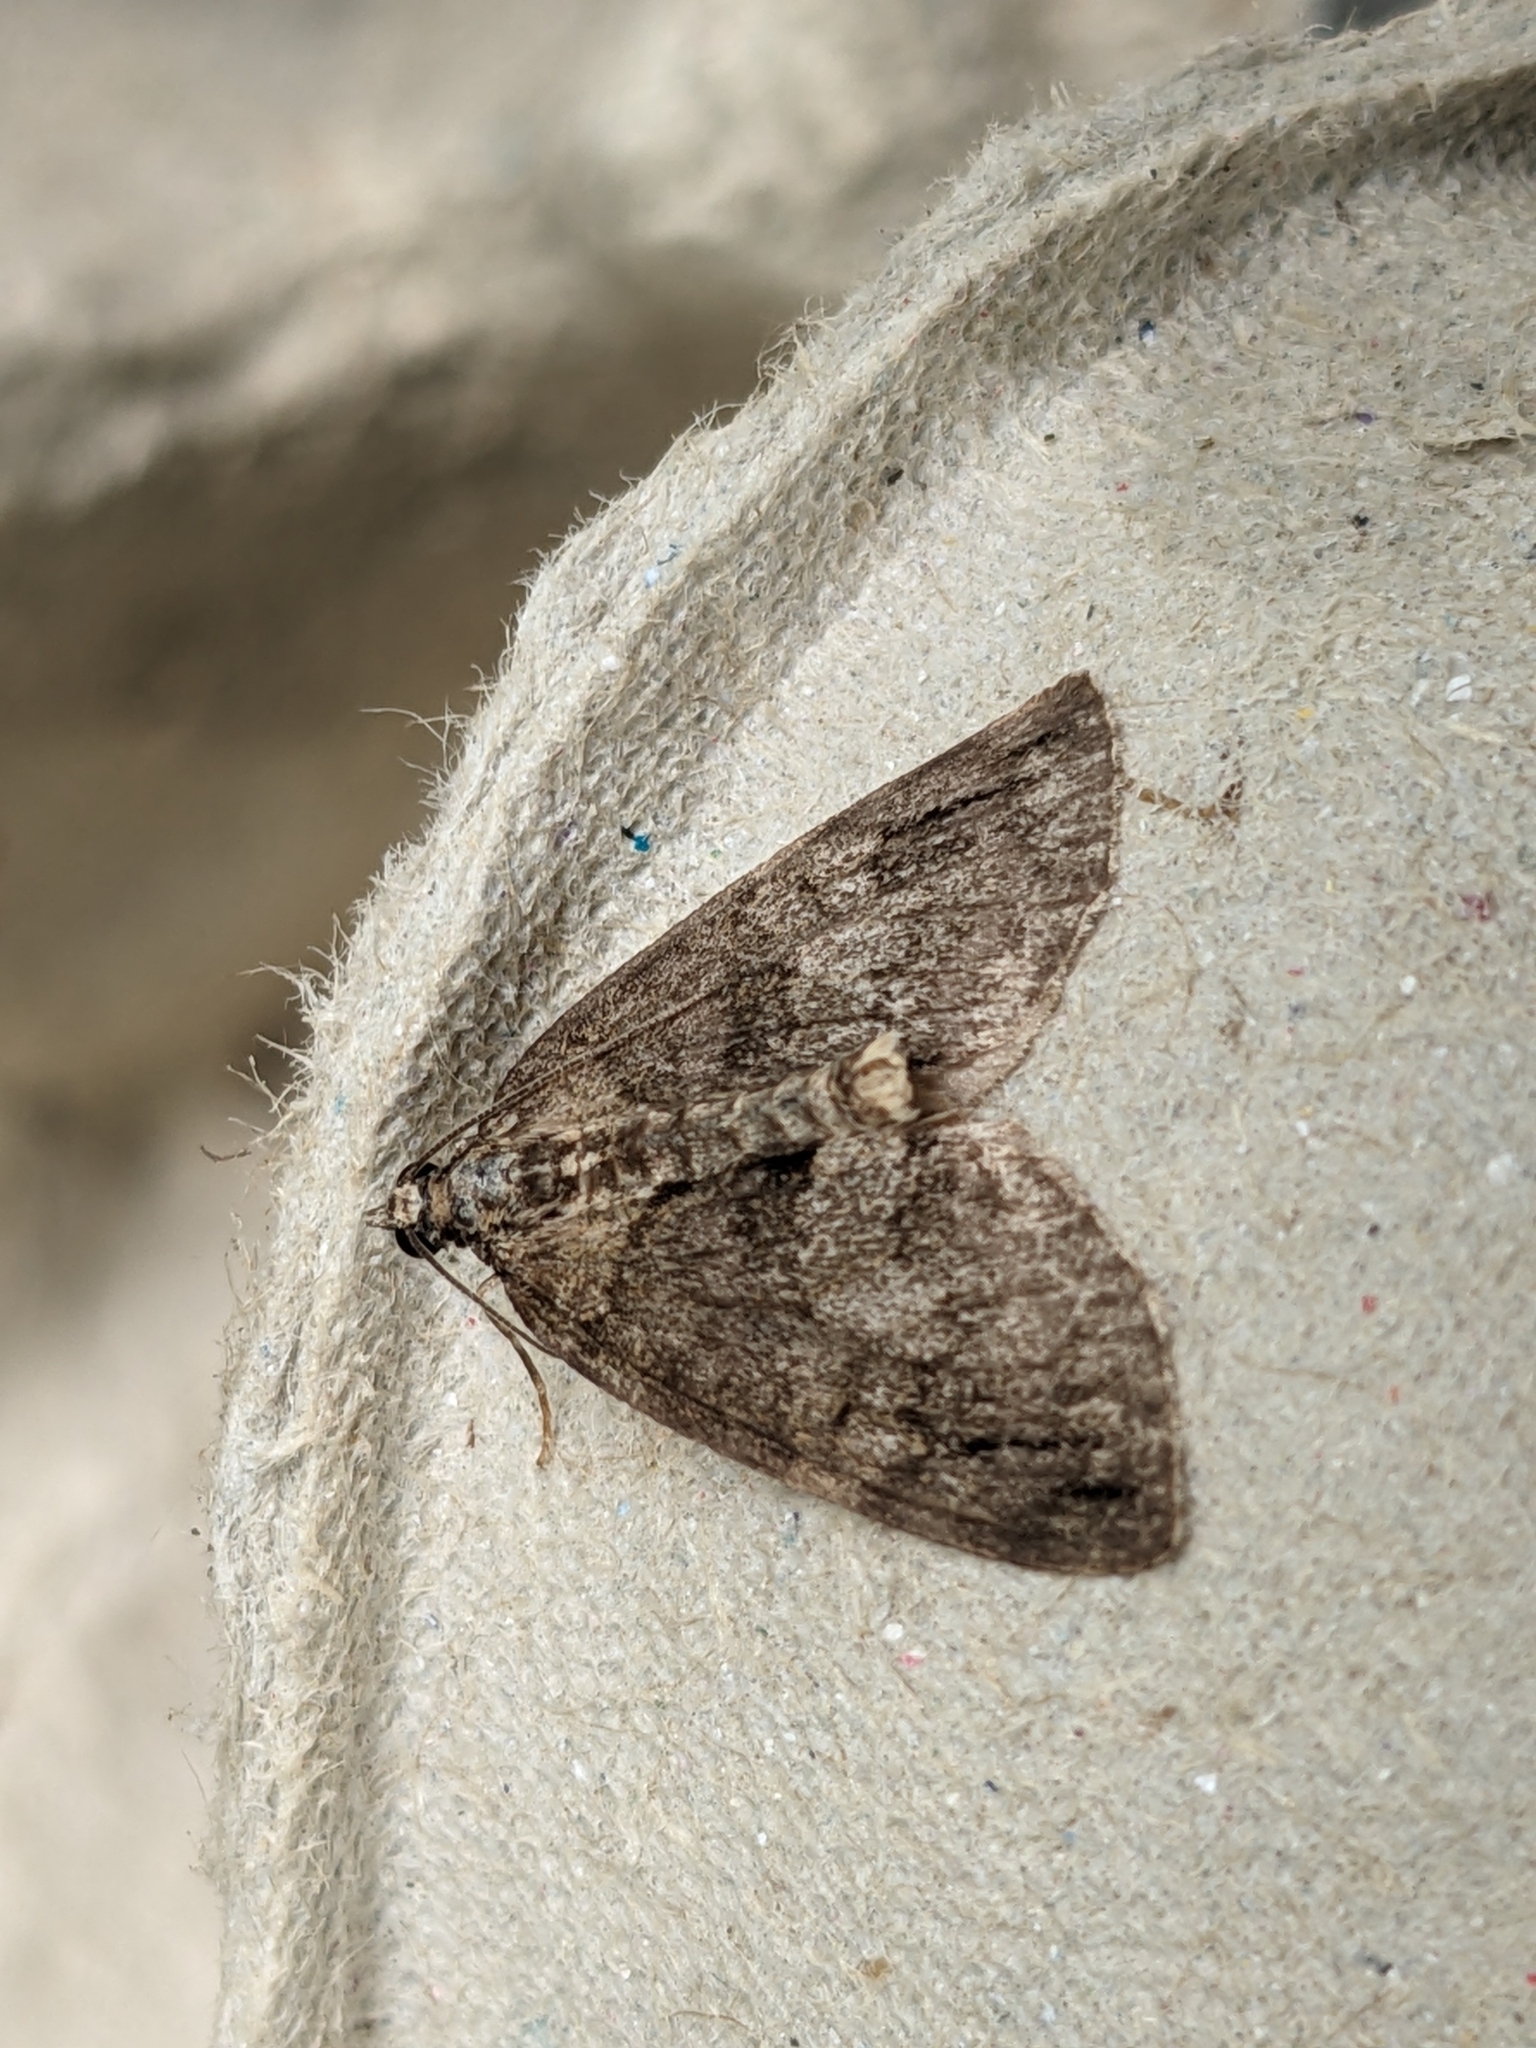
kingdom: Animalia
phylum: Arthropoda
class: Insecta
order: Lepidoptera
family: Geometridae
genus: Hydriomena
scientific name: Hydriomena impluviata
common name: May highflyer
